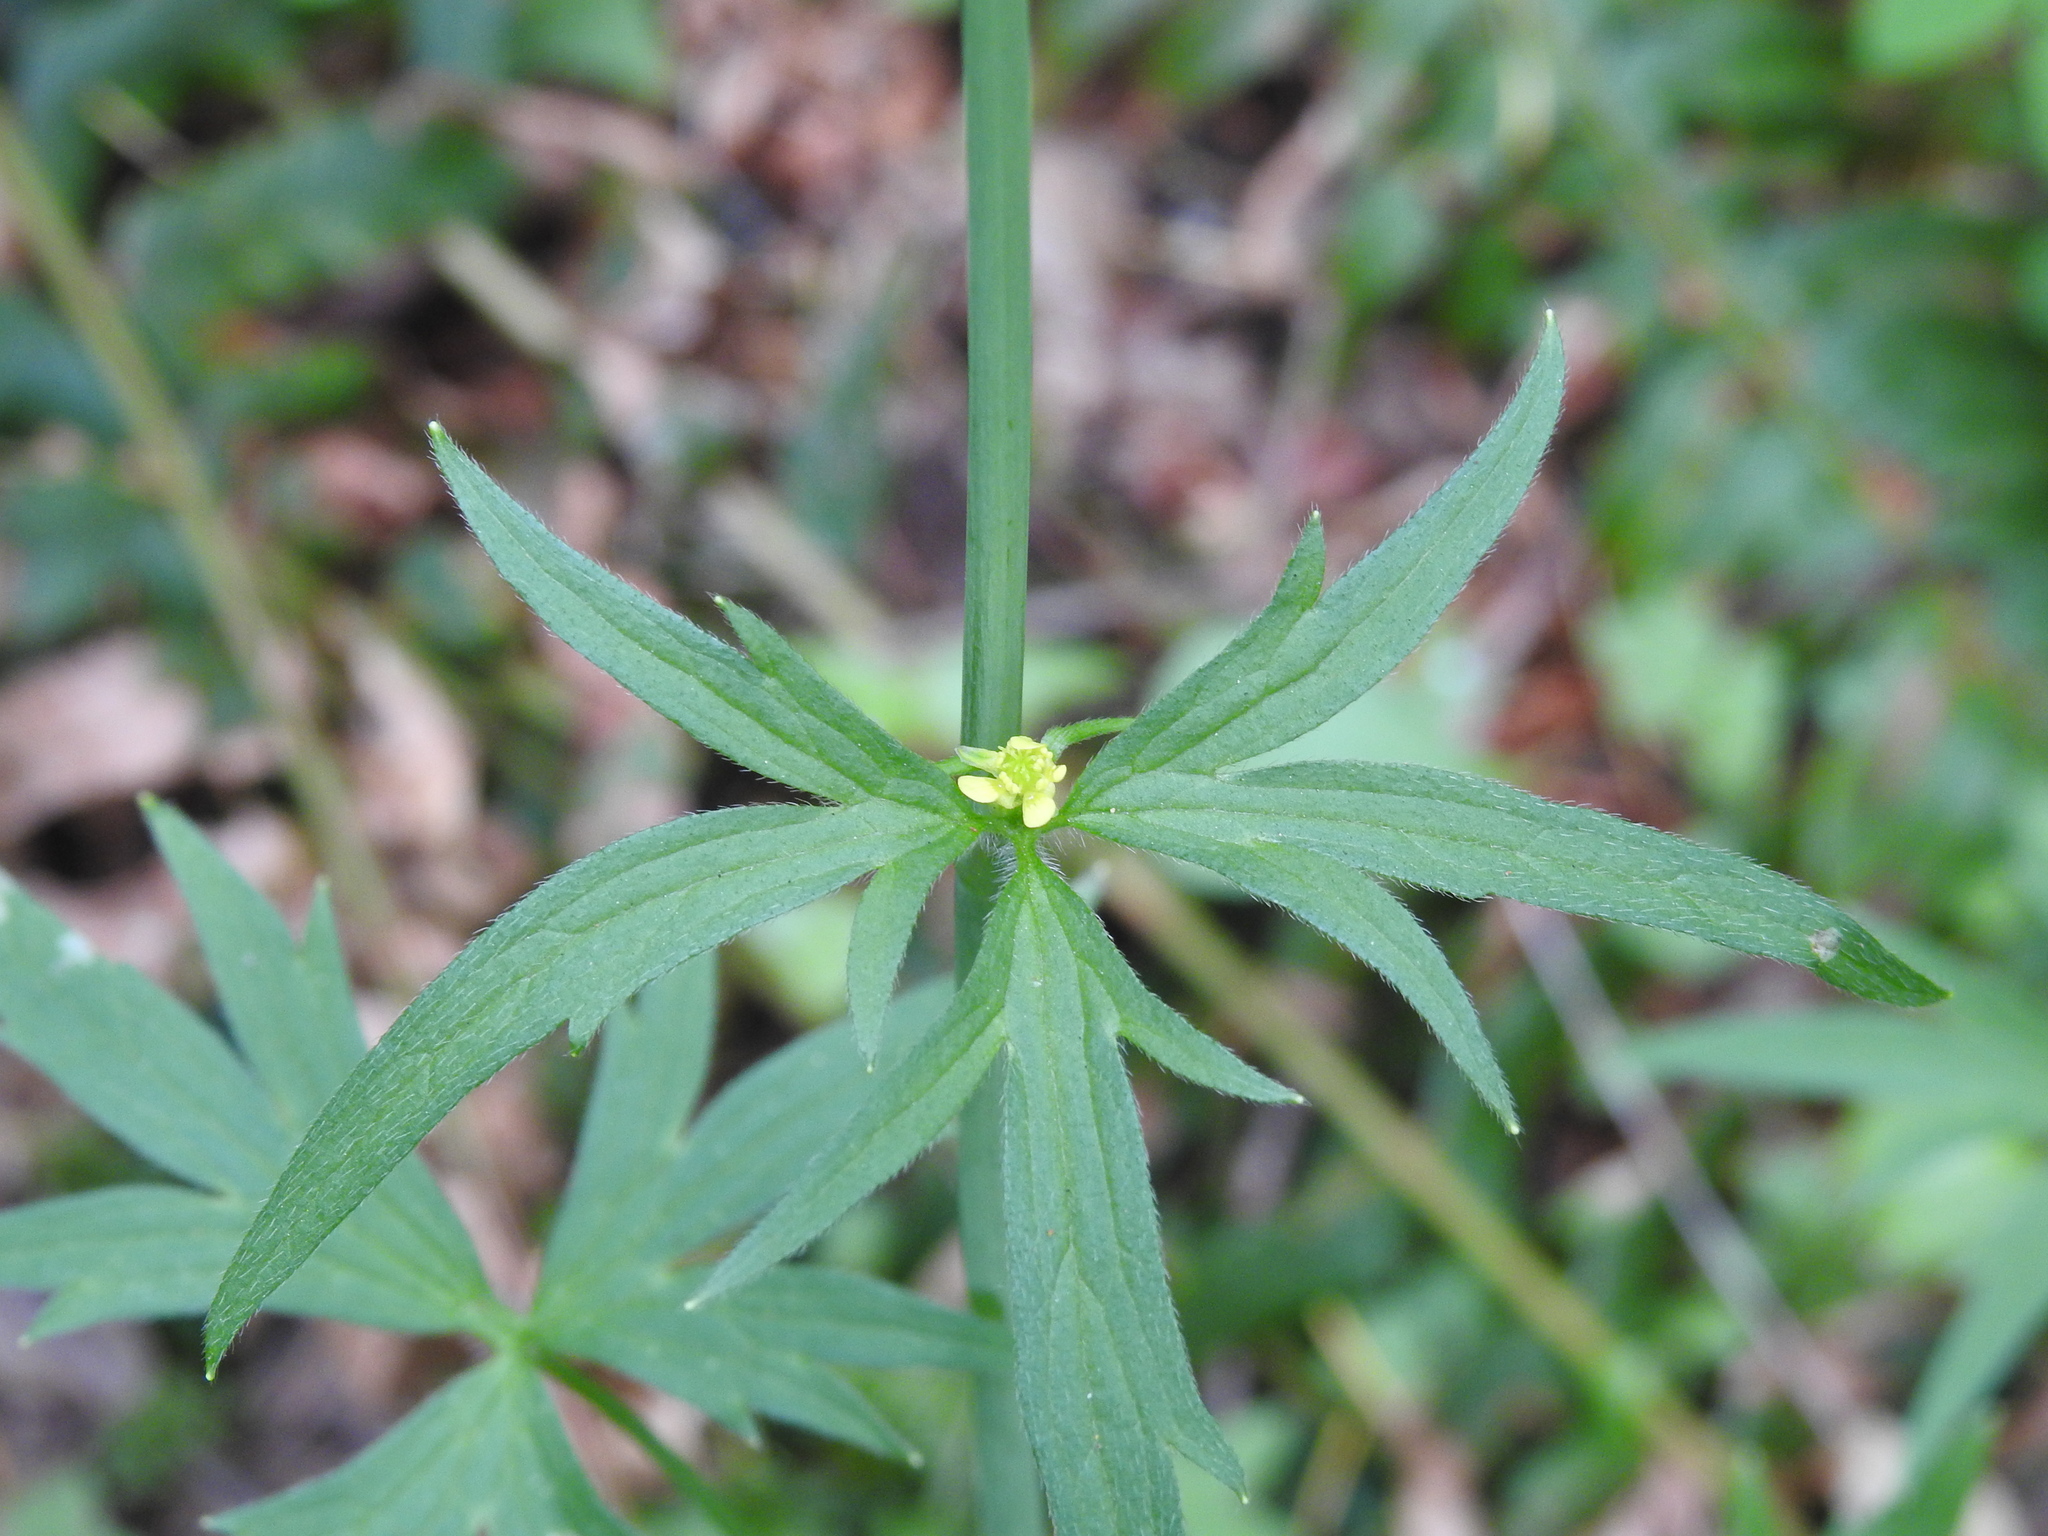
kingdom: Plantae
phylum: Tracheophyta
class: Magnoliopsida
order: Ranunculales
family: Ranunculaceae
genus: Ranunculus
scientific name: Ranunculus uncinatus
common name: Little buttercup
